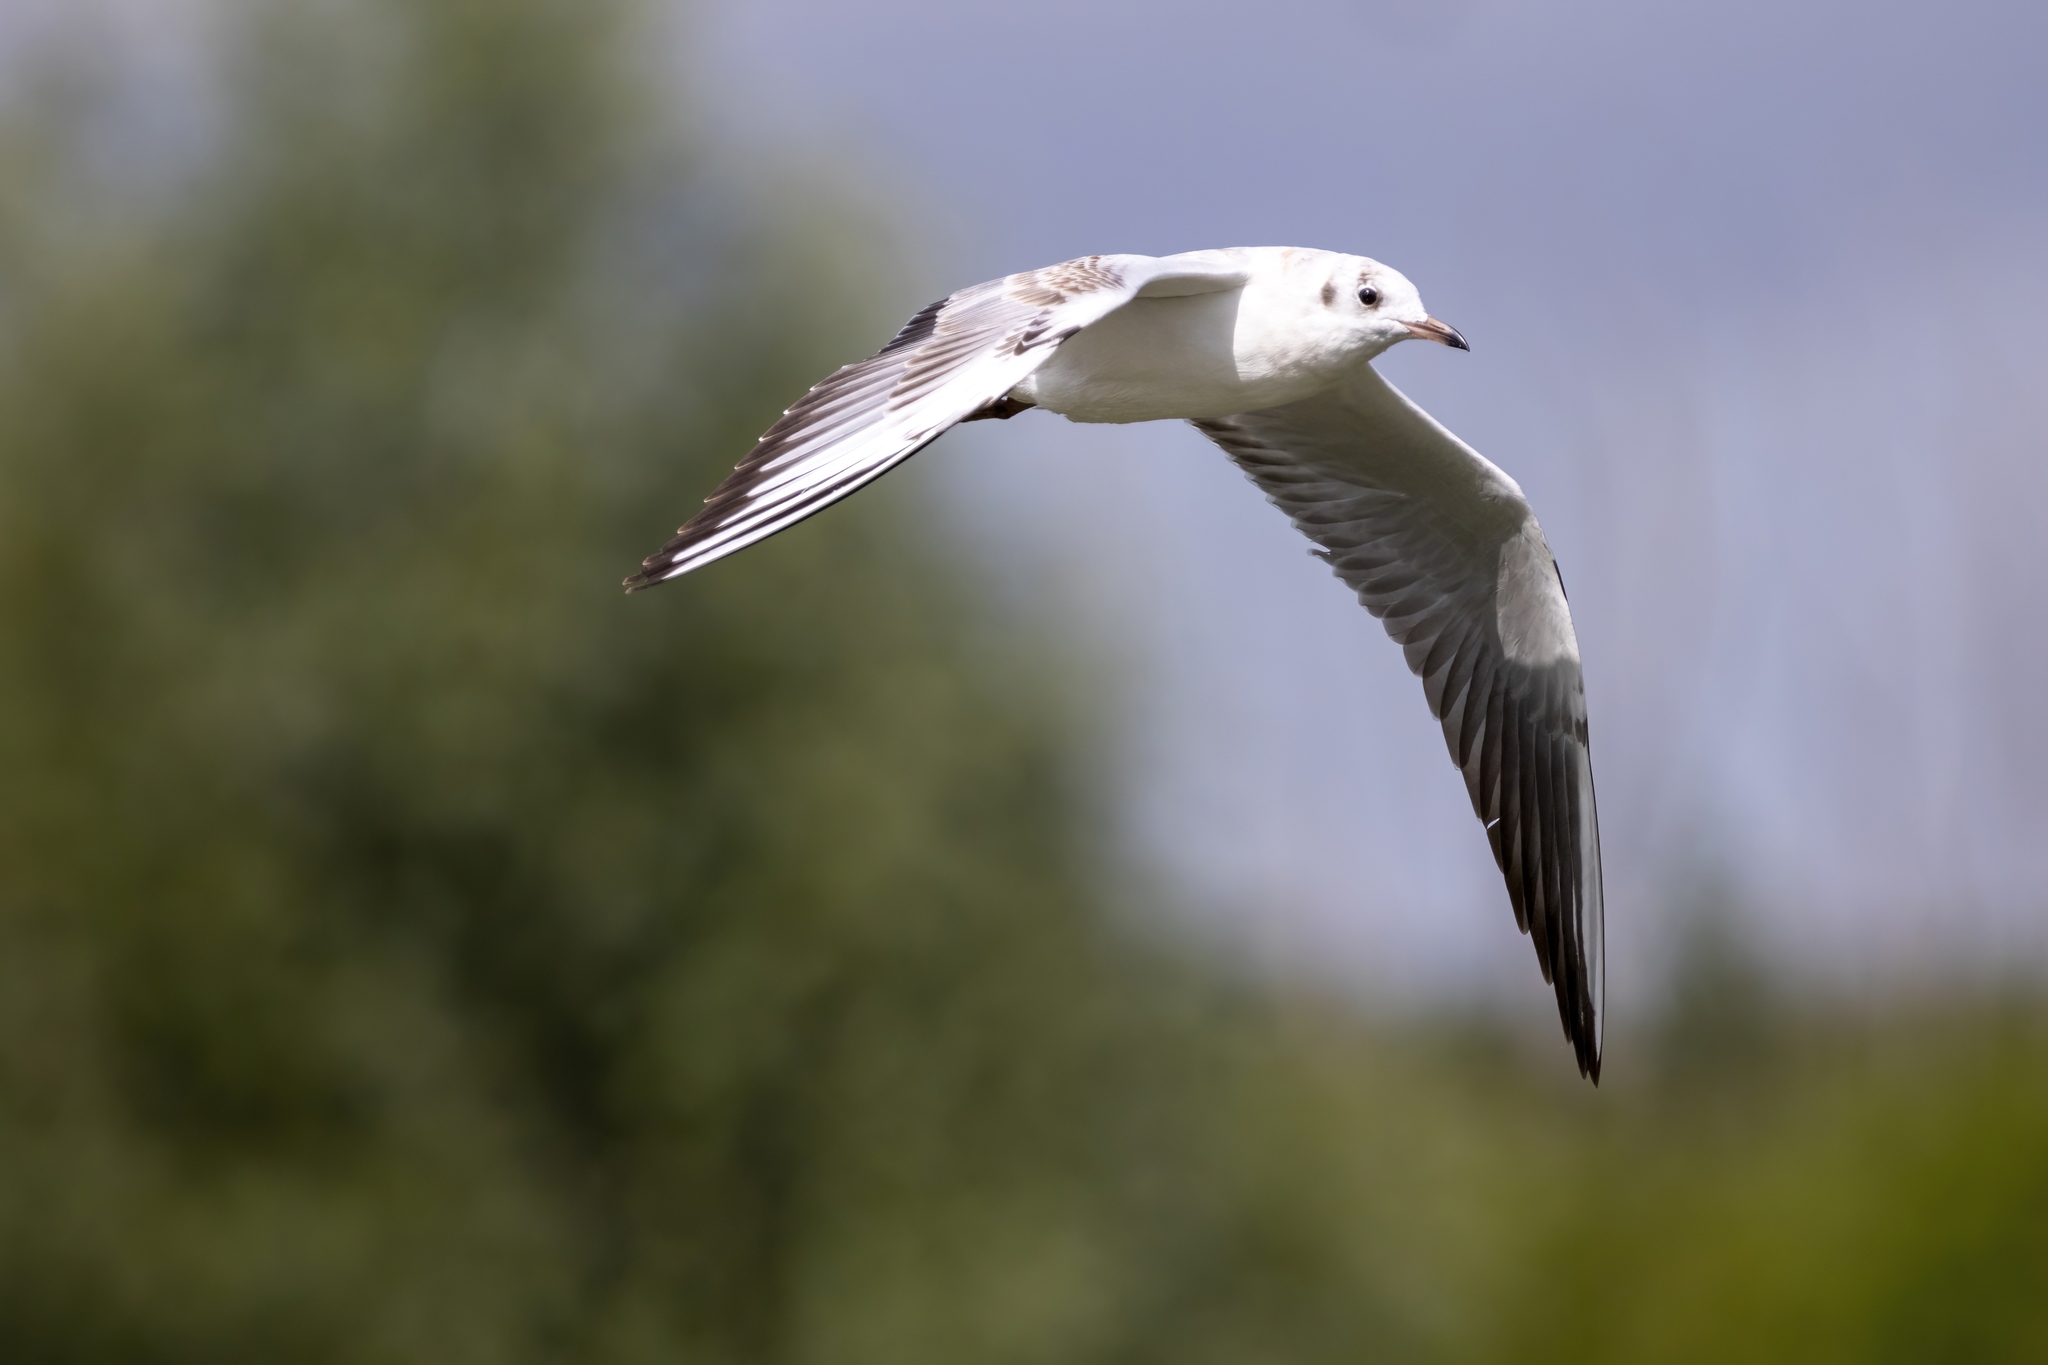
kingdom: Animalia
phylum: Chordata
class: Aves
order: Charadriiformes
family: Laridae
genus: Chroicocephalus
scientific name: Chroicocephalus ridibundus
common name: Black-headed gull
